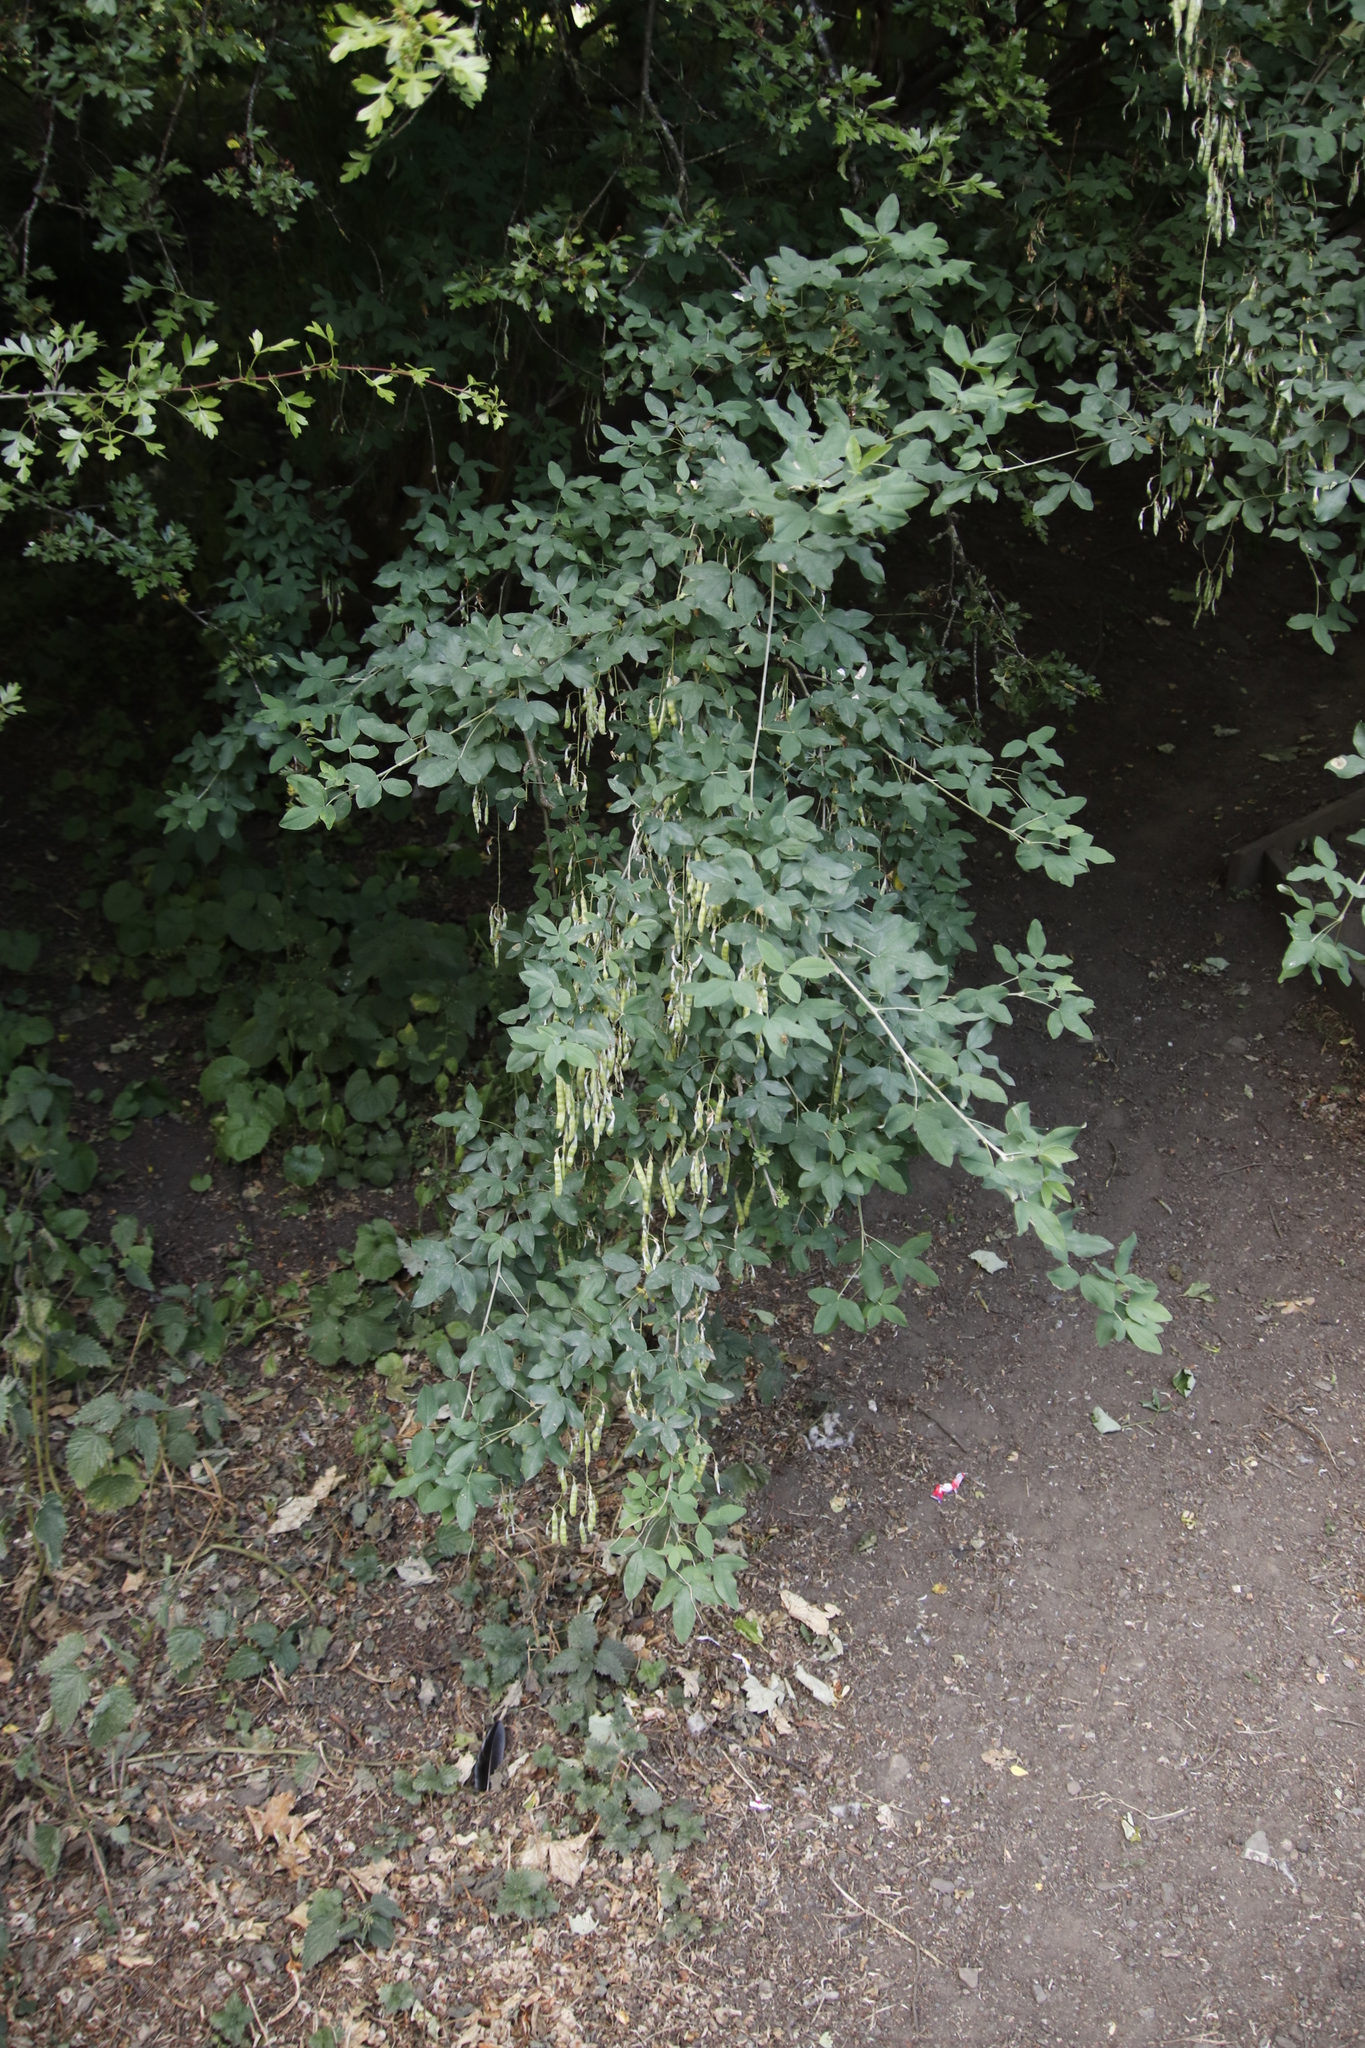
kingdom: Plantae
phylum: Tracheophyta
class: Magnoliopsida
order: Fabales
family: Fabaceae
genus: Laburnum
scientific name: Laburnum anagyroides
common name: Laburnum
